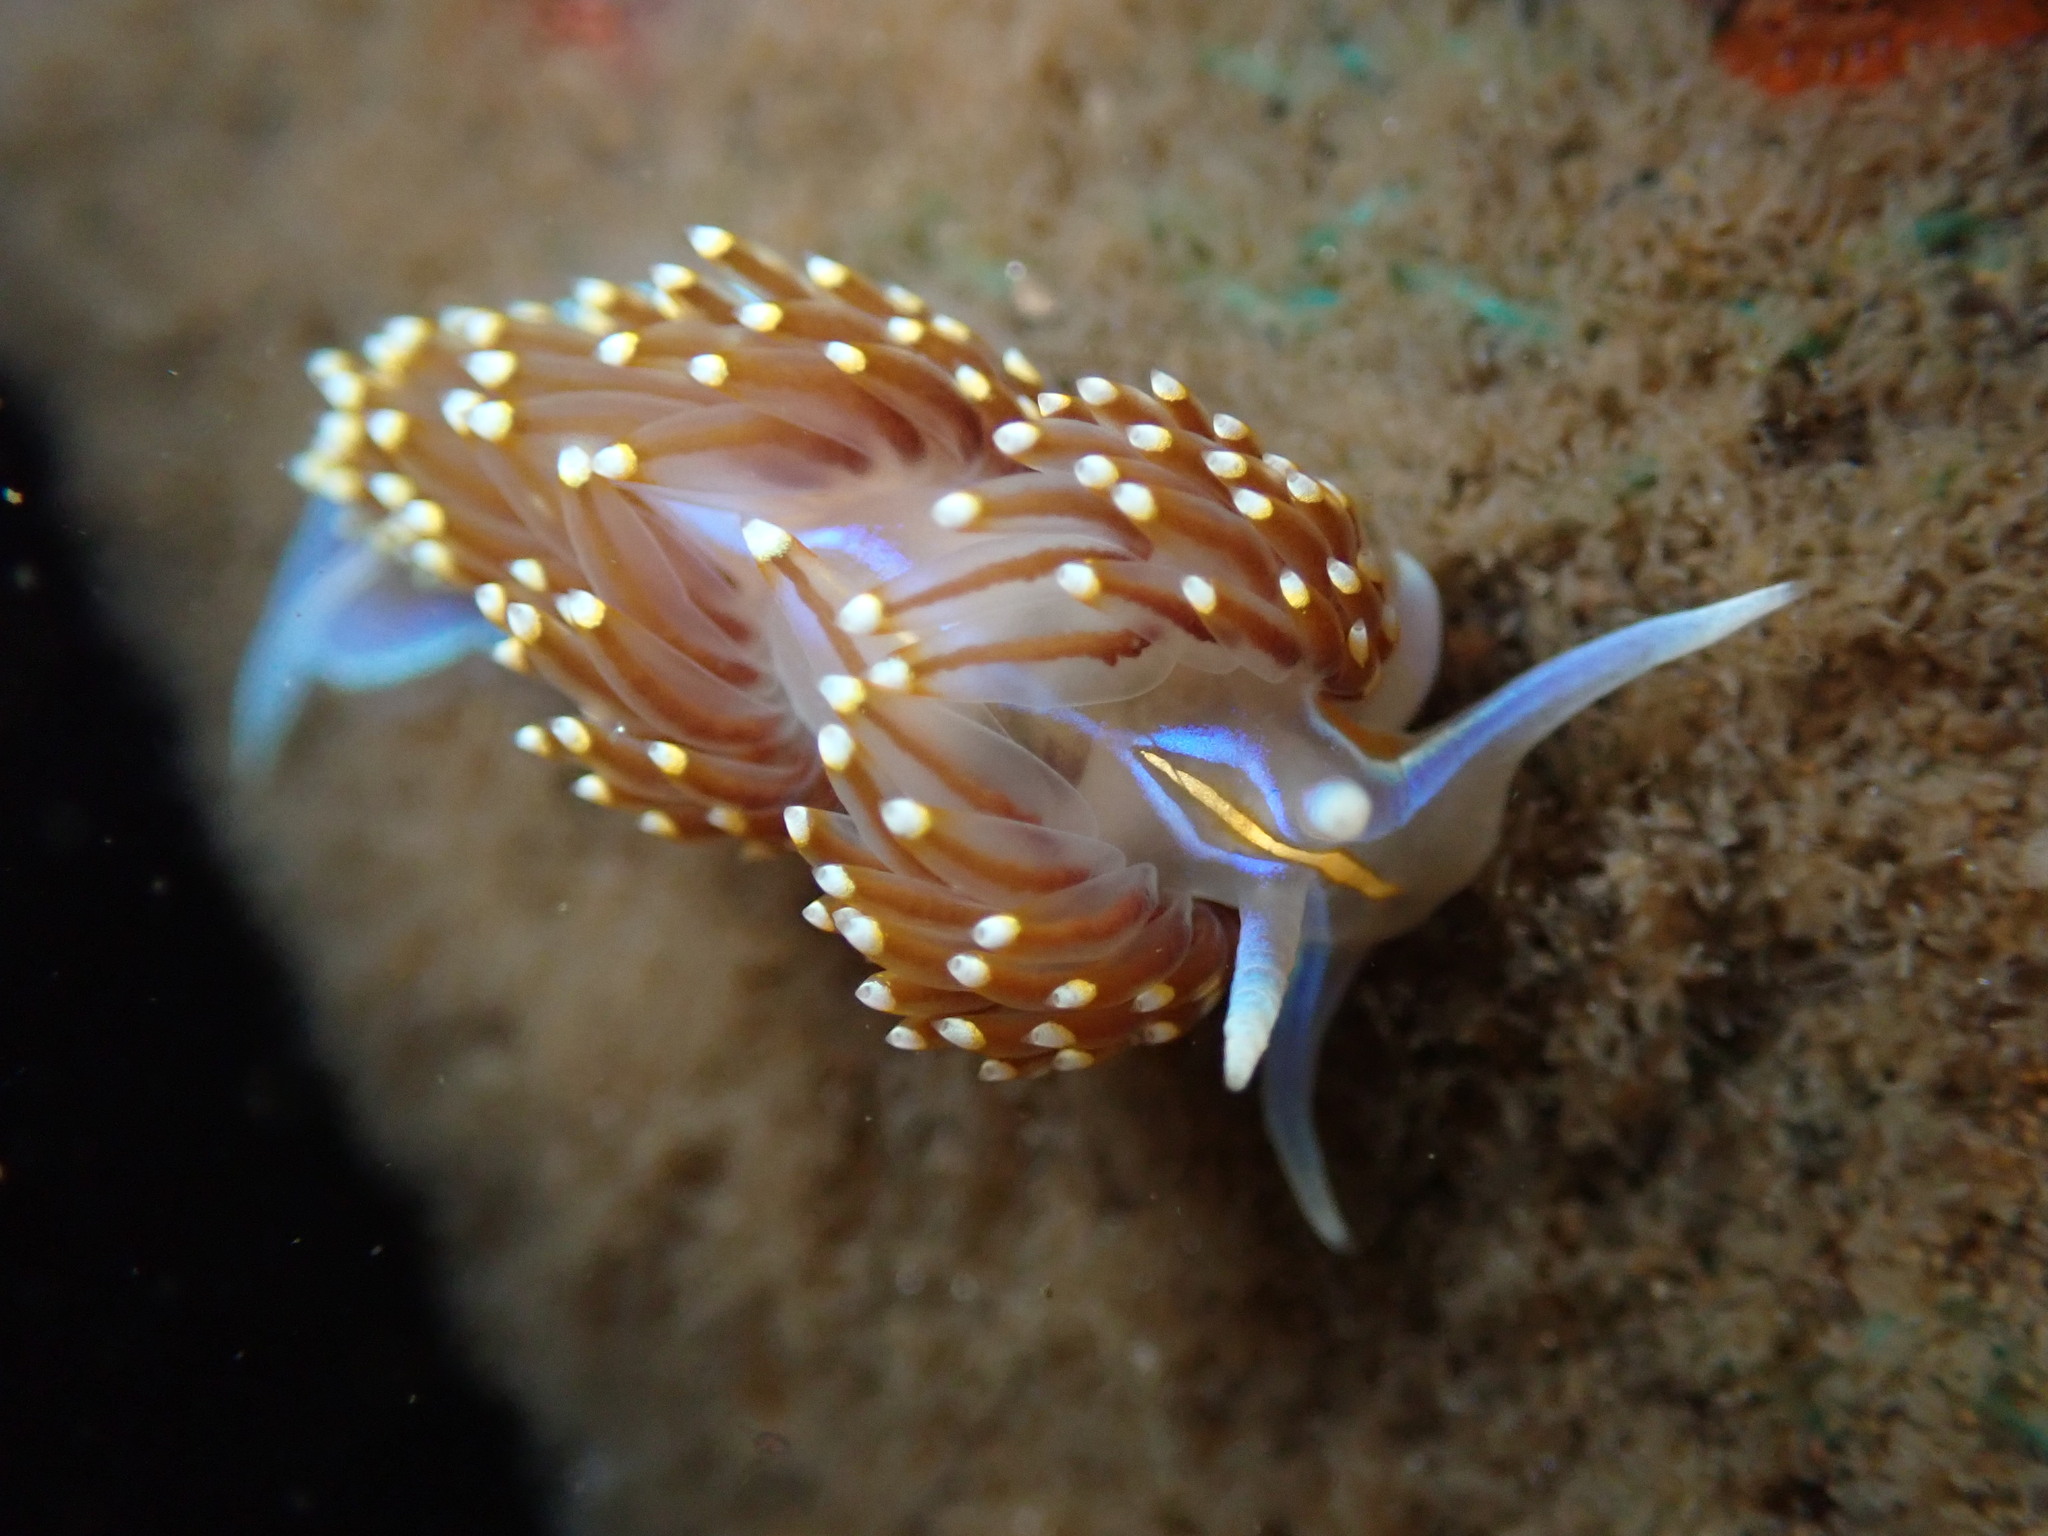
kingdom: Animalia
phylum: Mollusca
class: Gastropoda
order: Nudibranchia
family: Myrrhinidae
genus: Hermissenda
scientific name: Hermissenda opalescens
